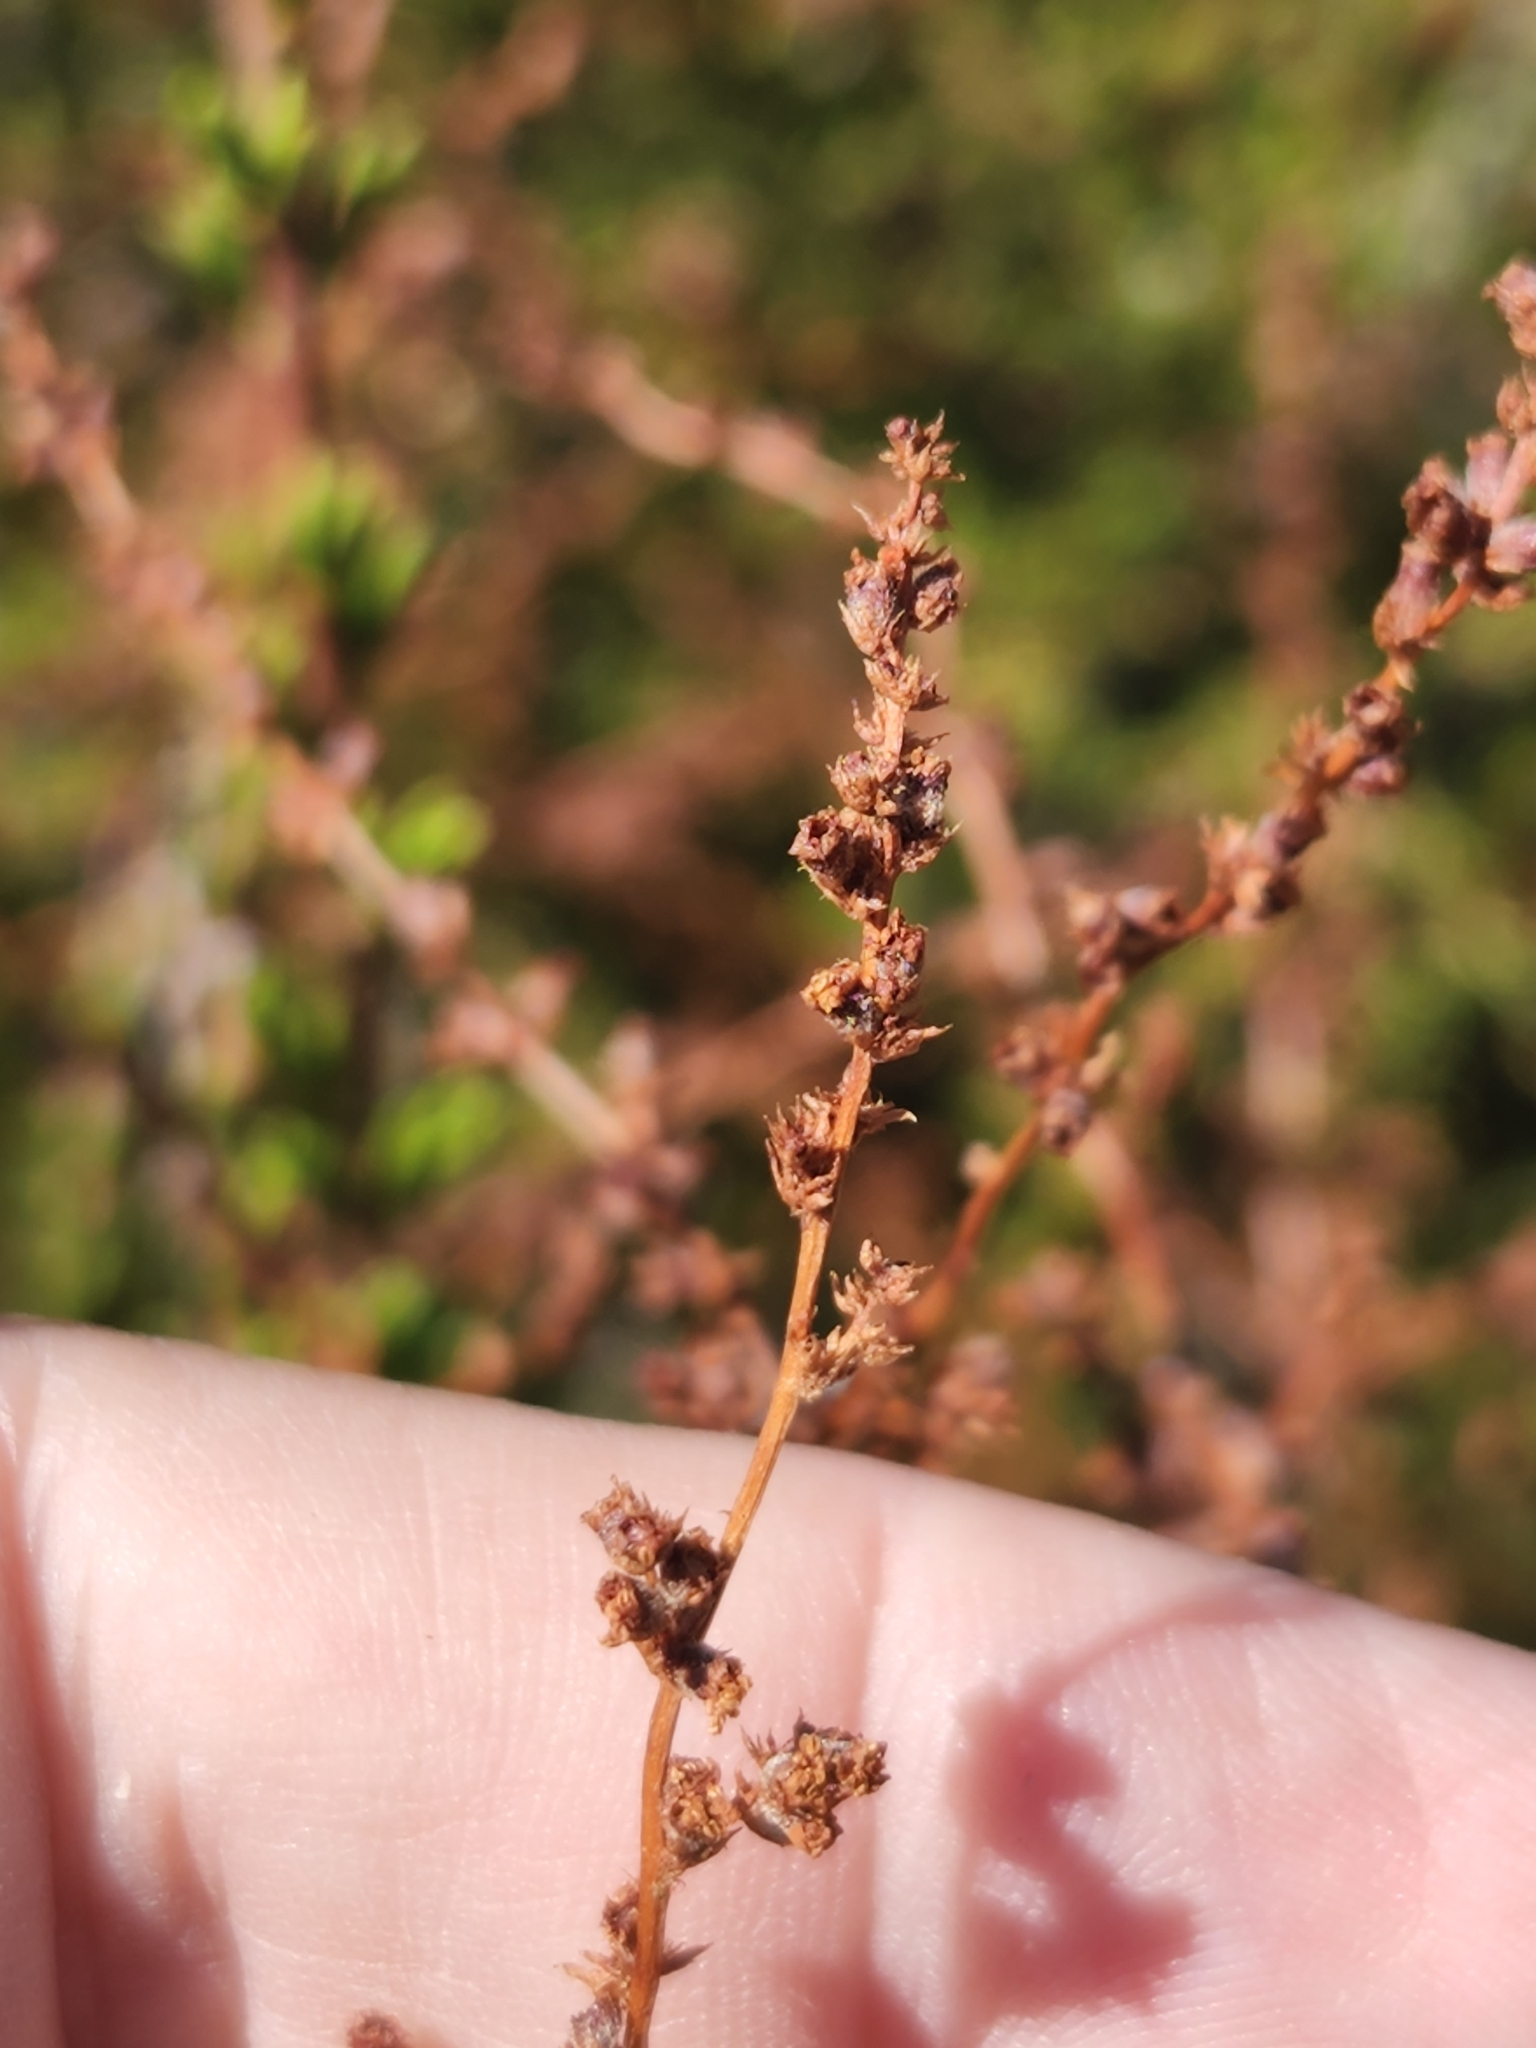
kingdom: Plantae
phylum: Tracheophyta
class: Magnoliopsida
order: Rosales
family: Rosaceae
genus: Adenostoma
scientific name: Adenostoma fasciculatum
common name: Chamise
